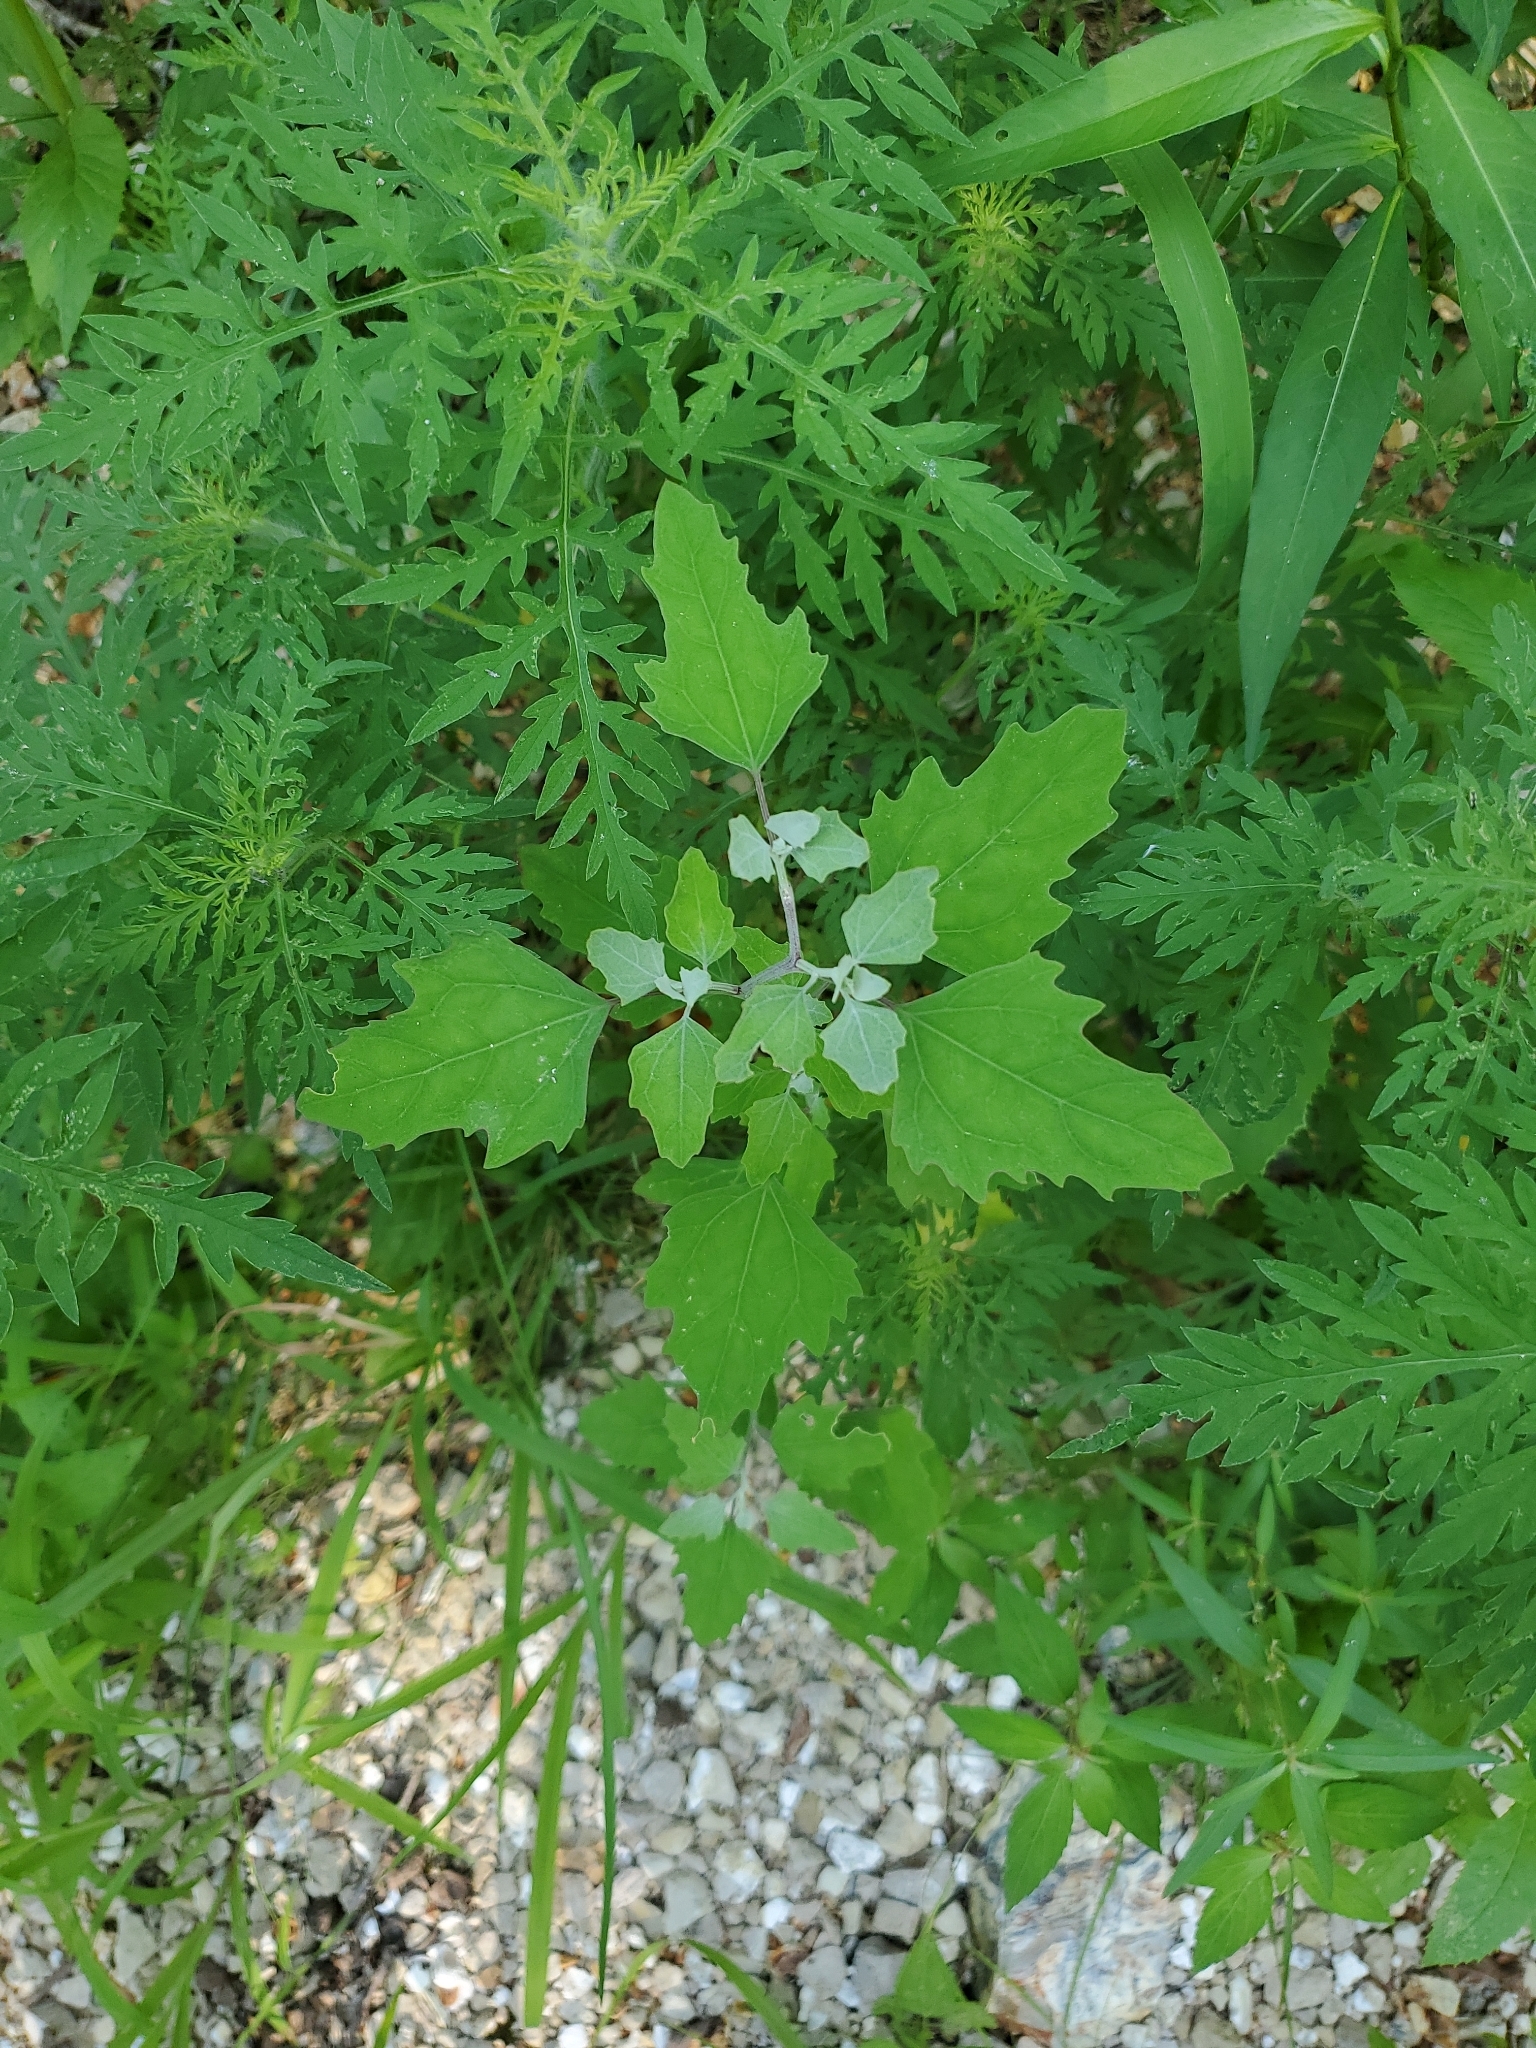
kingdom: Plantae
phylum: Tracheophyta
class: Magnoliopsida
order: Caryophyllales
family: Amaranthaceae
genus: Chenopodium
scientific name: Chenopodium album
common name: Fat-hen
